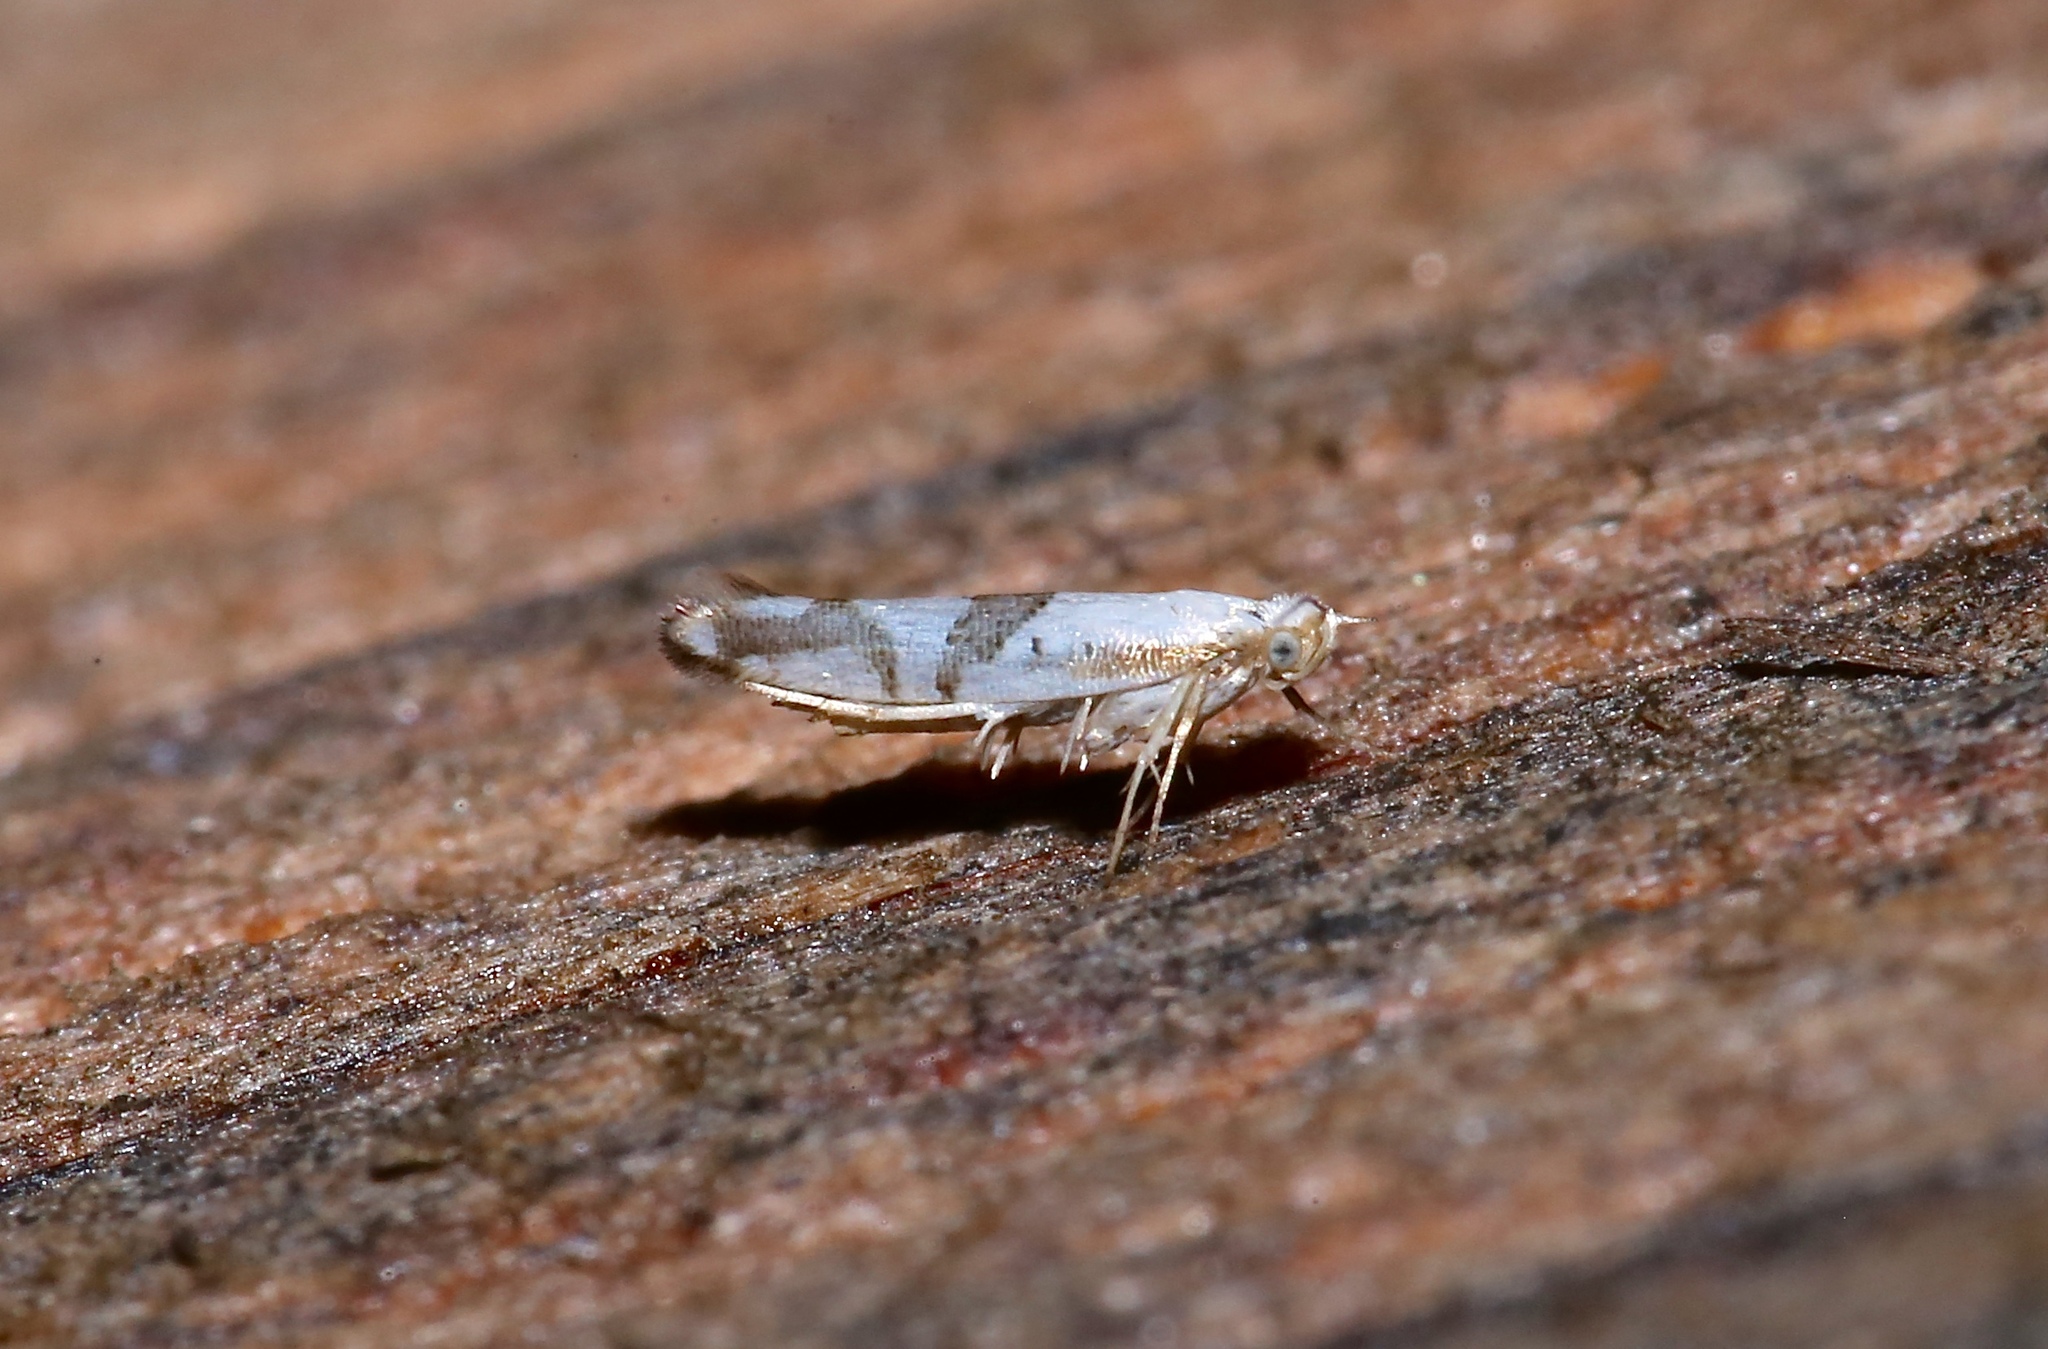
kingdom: Animalia
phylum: Arthropoda
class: Insecta
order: Lepidoptera
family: Argyresthiidae
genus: Argyresthia
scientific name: Argyresthia oreasella
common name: Cherry shoot borer moth
